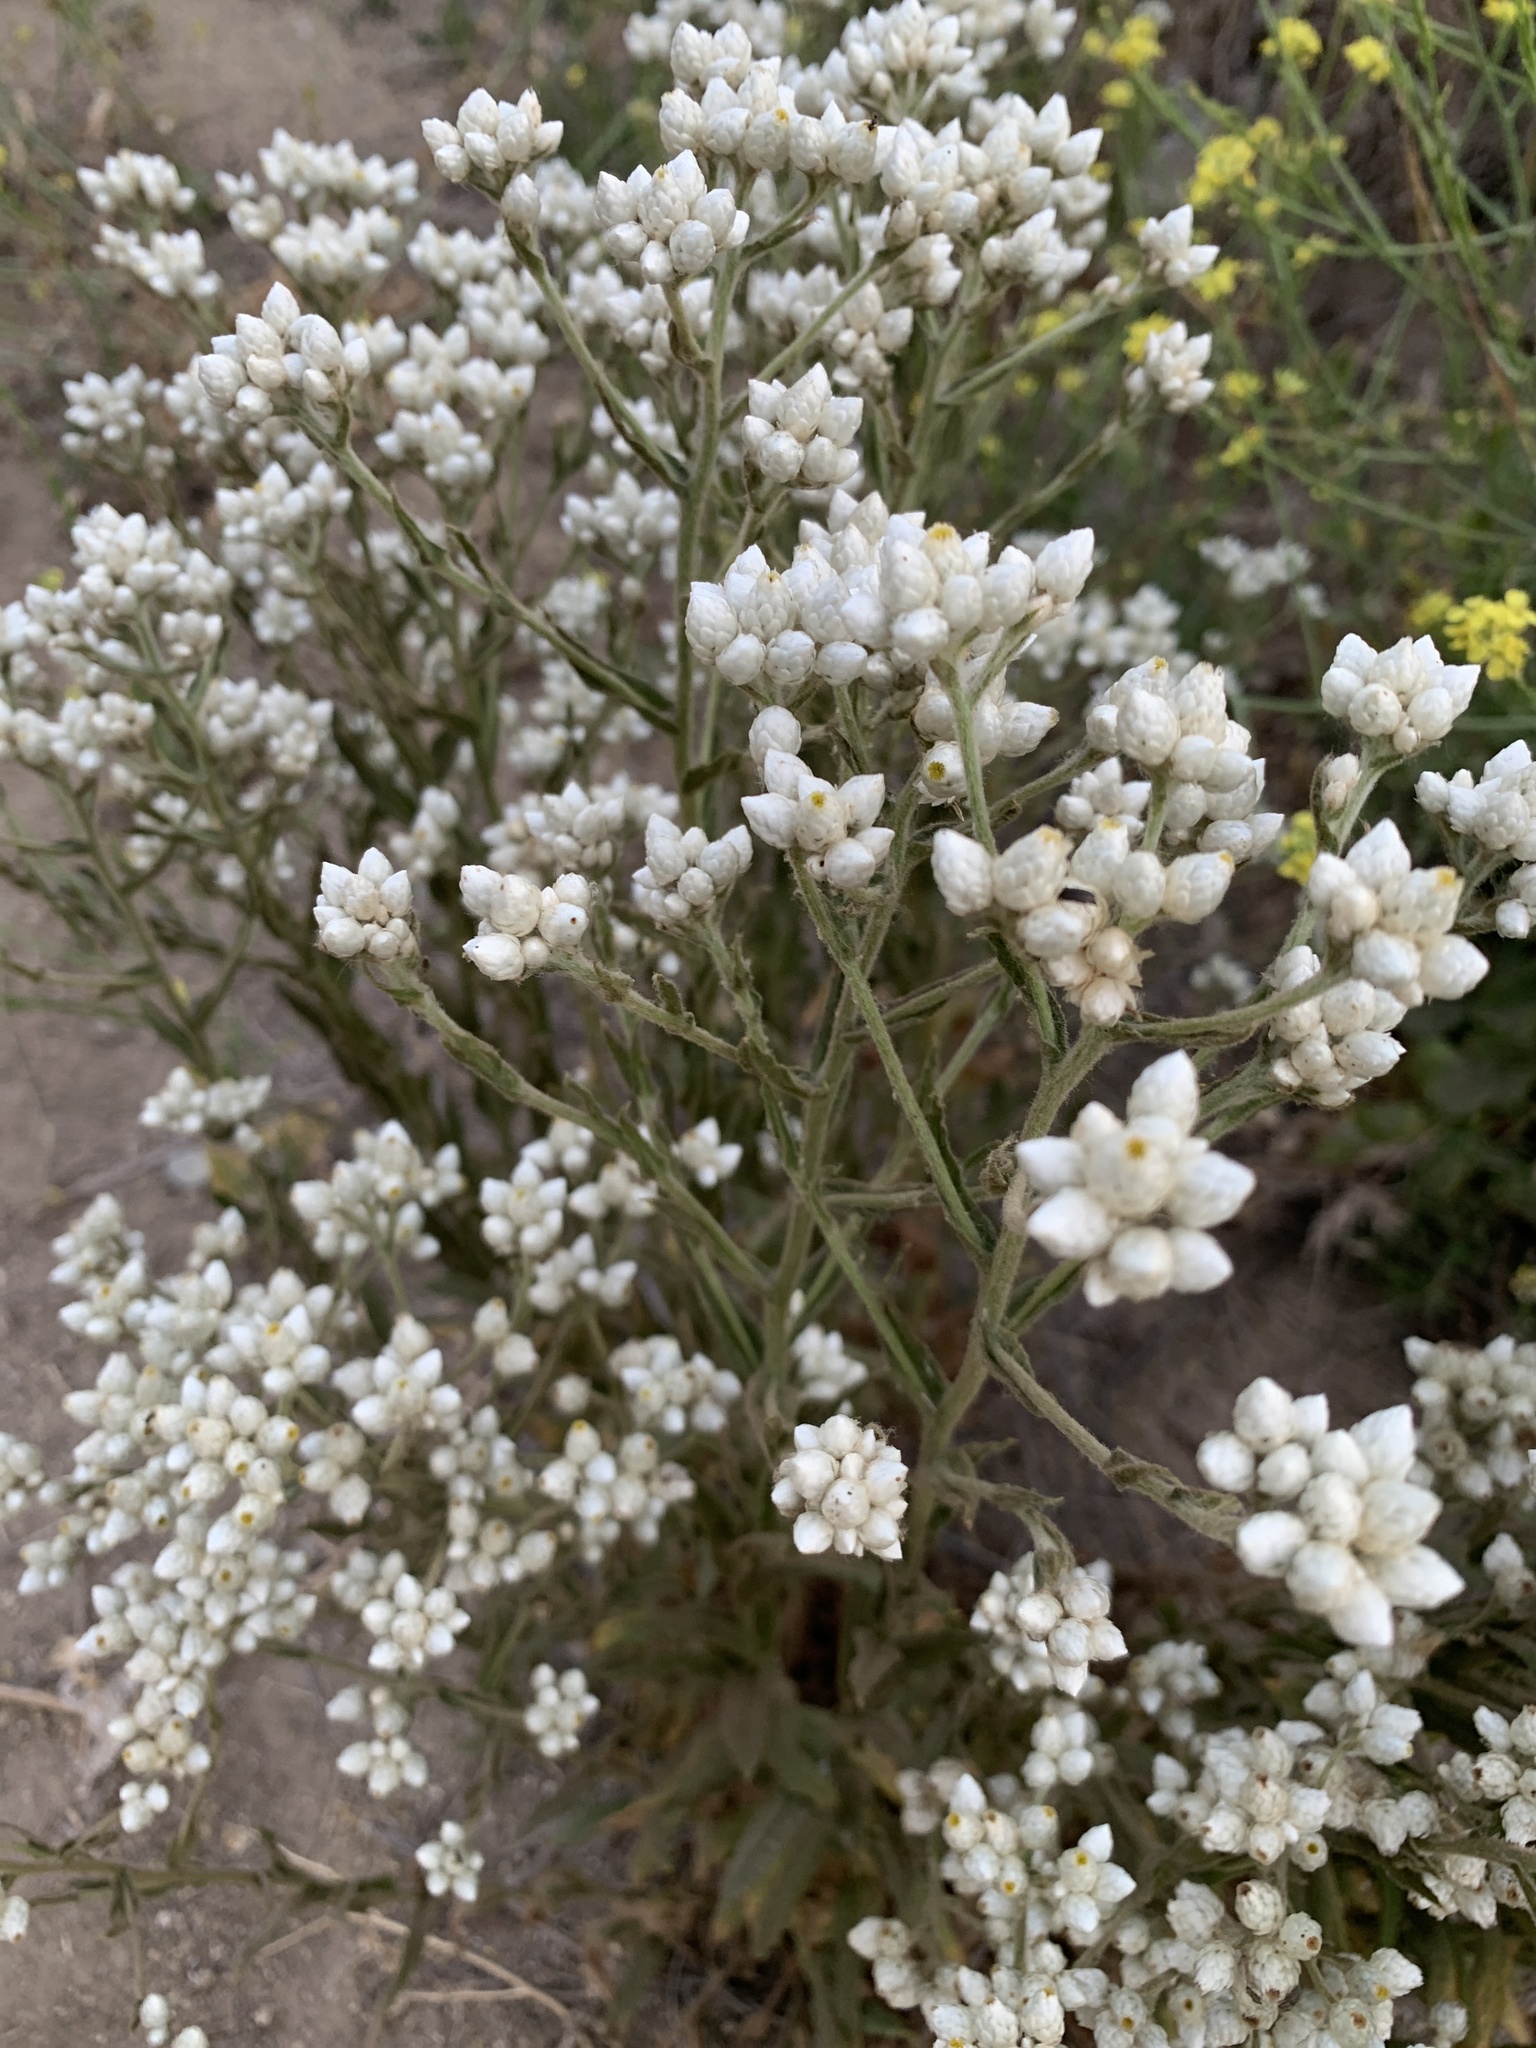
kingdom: Plantae
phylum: Tracheophyta
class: Magnoliopsida
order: Asterales
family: Asteraceae
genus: Pseudognaphalium
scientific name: Pseudognaphalium microcephalum
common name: San diego rabbit-tobacco
